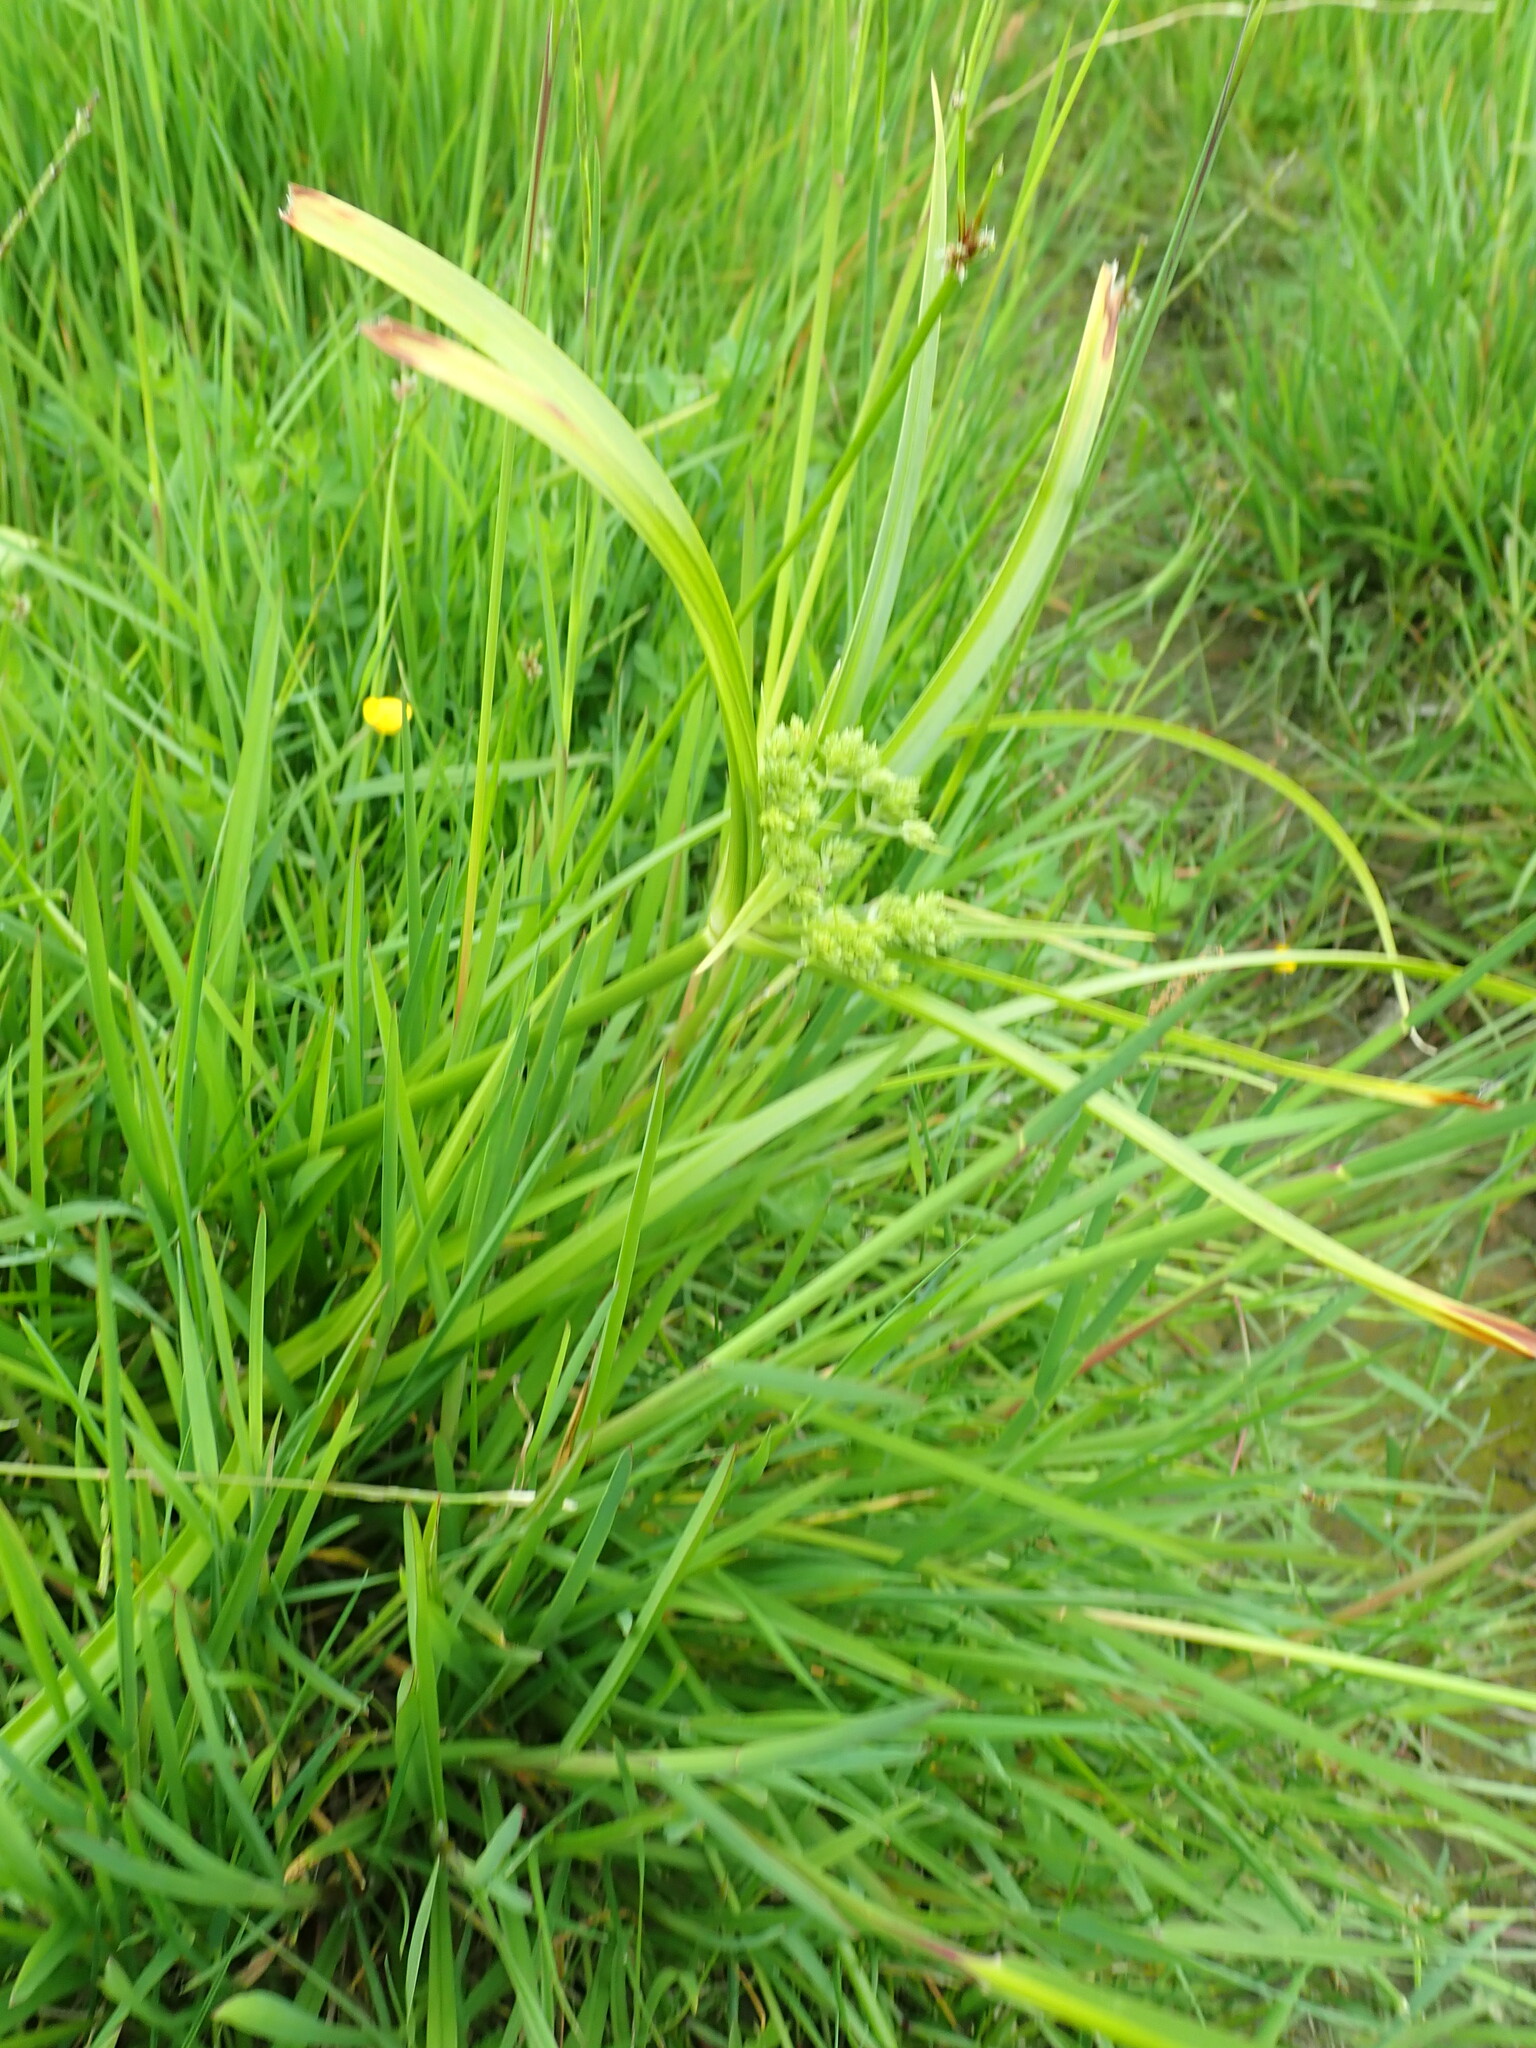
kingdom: Plantae
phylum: Tracheophyta
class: Liliopsida
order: Poales
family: Cyperaceae
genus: Cyperus
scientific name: Cyperus eragrostis
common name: Tall flatsedge
